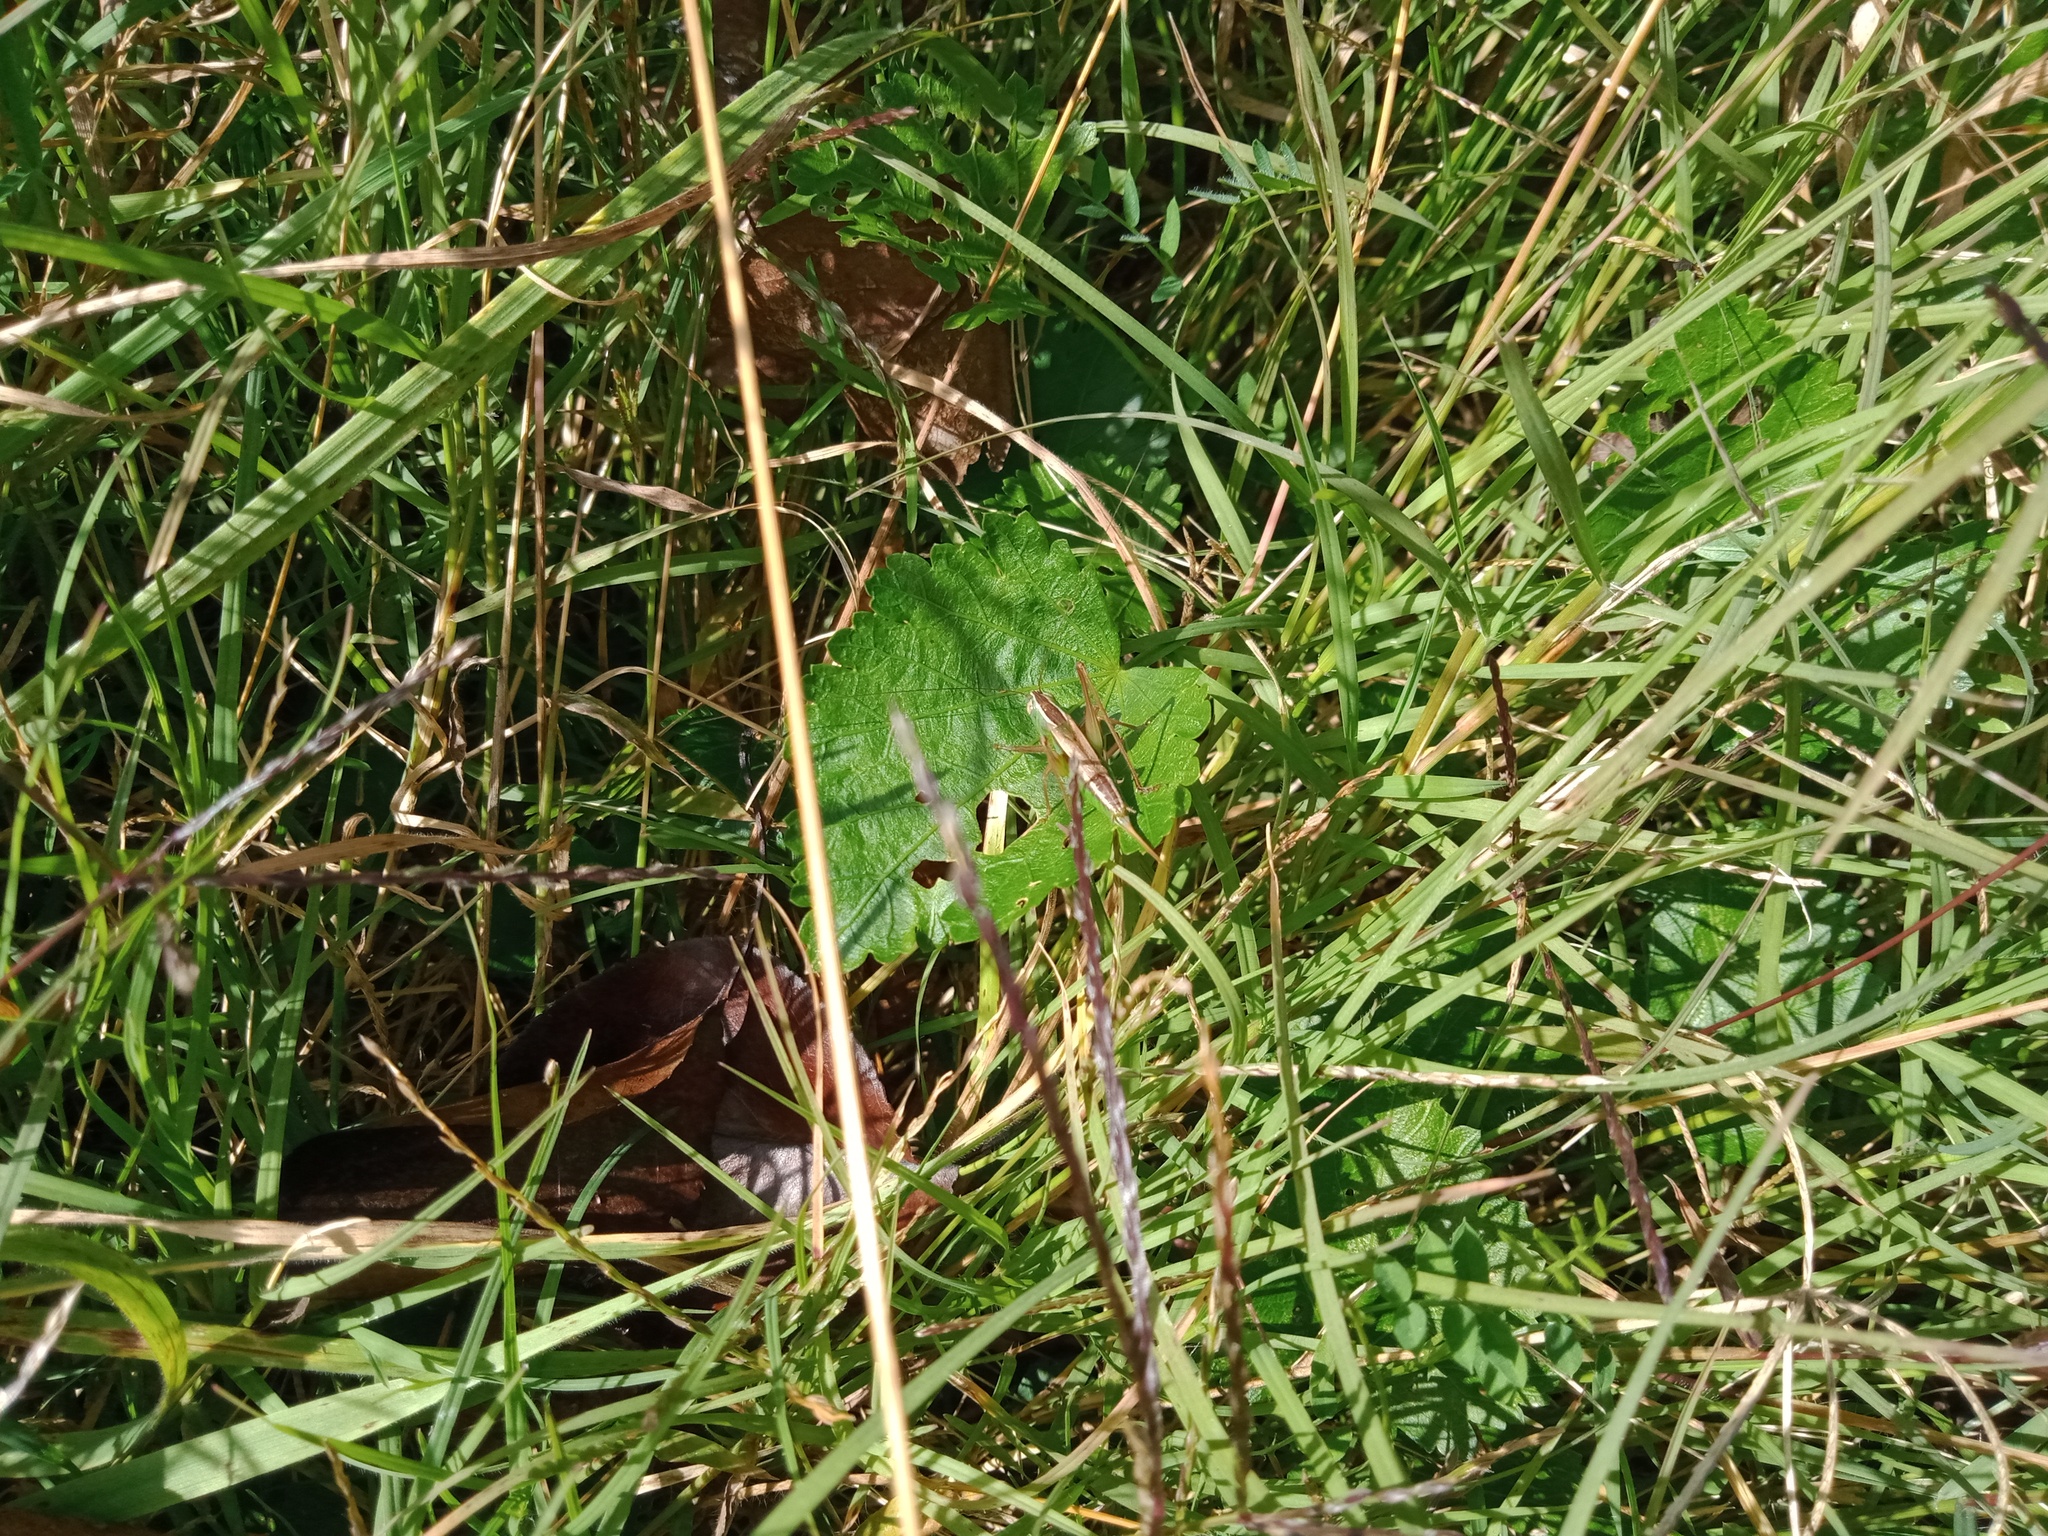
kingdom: Animalia
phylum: Arthropoda
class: Insecta
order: Orthoptera
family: Tettigoniidae
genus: Conocephalus
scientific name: Conocephalus albescens
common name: Whitish meadow katydid
